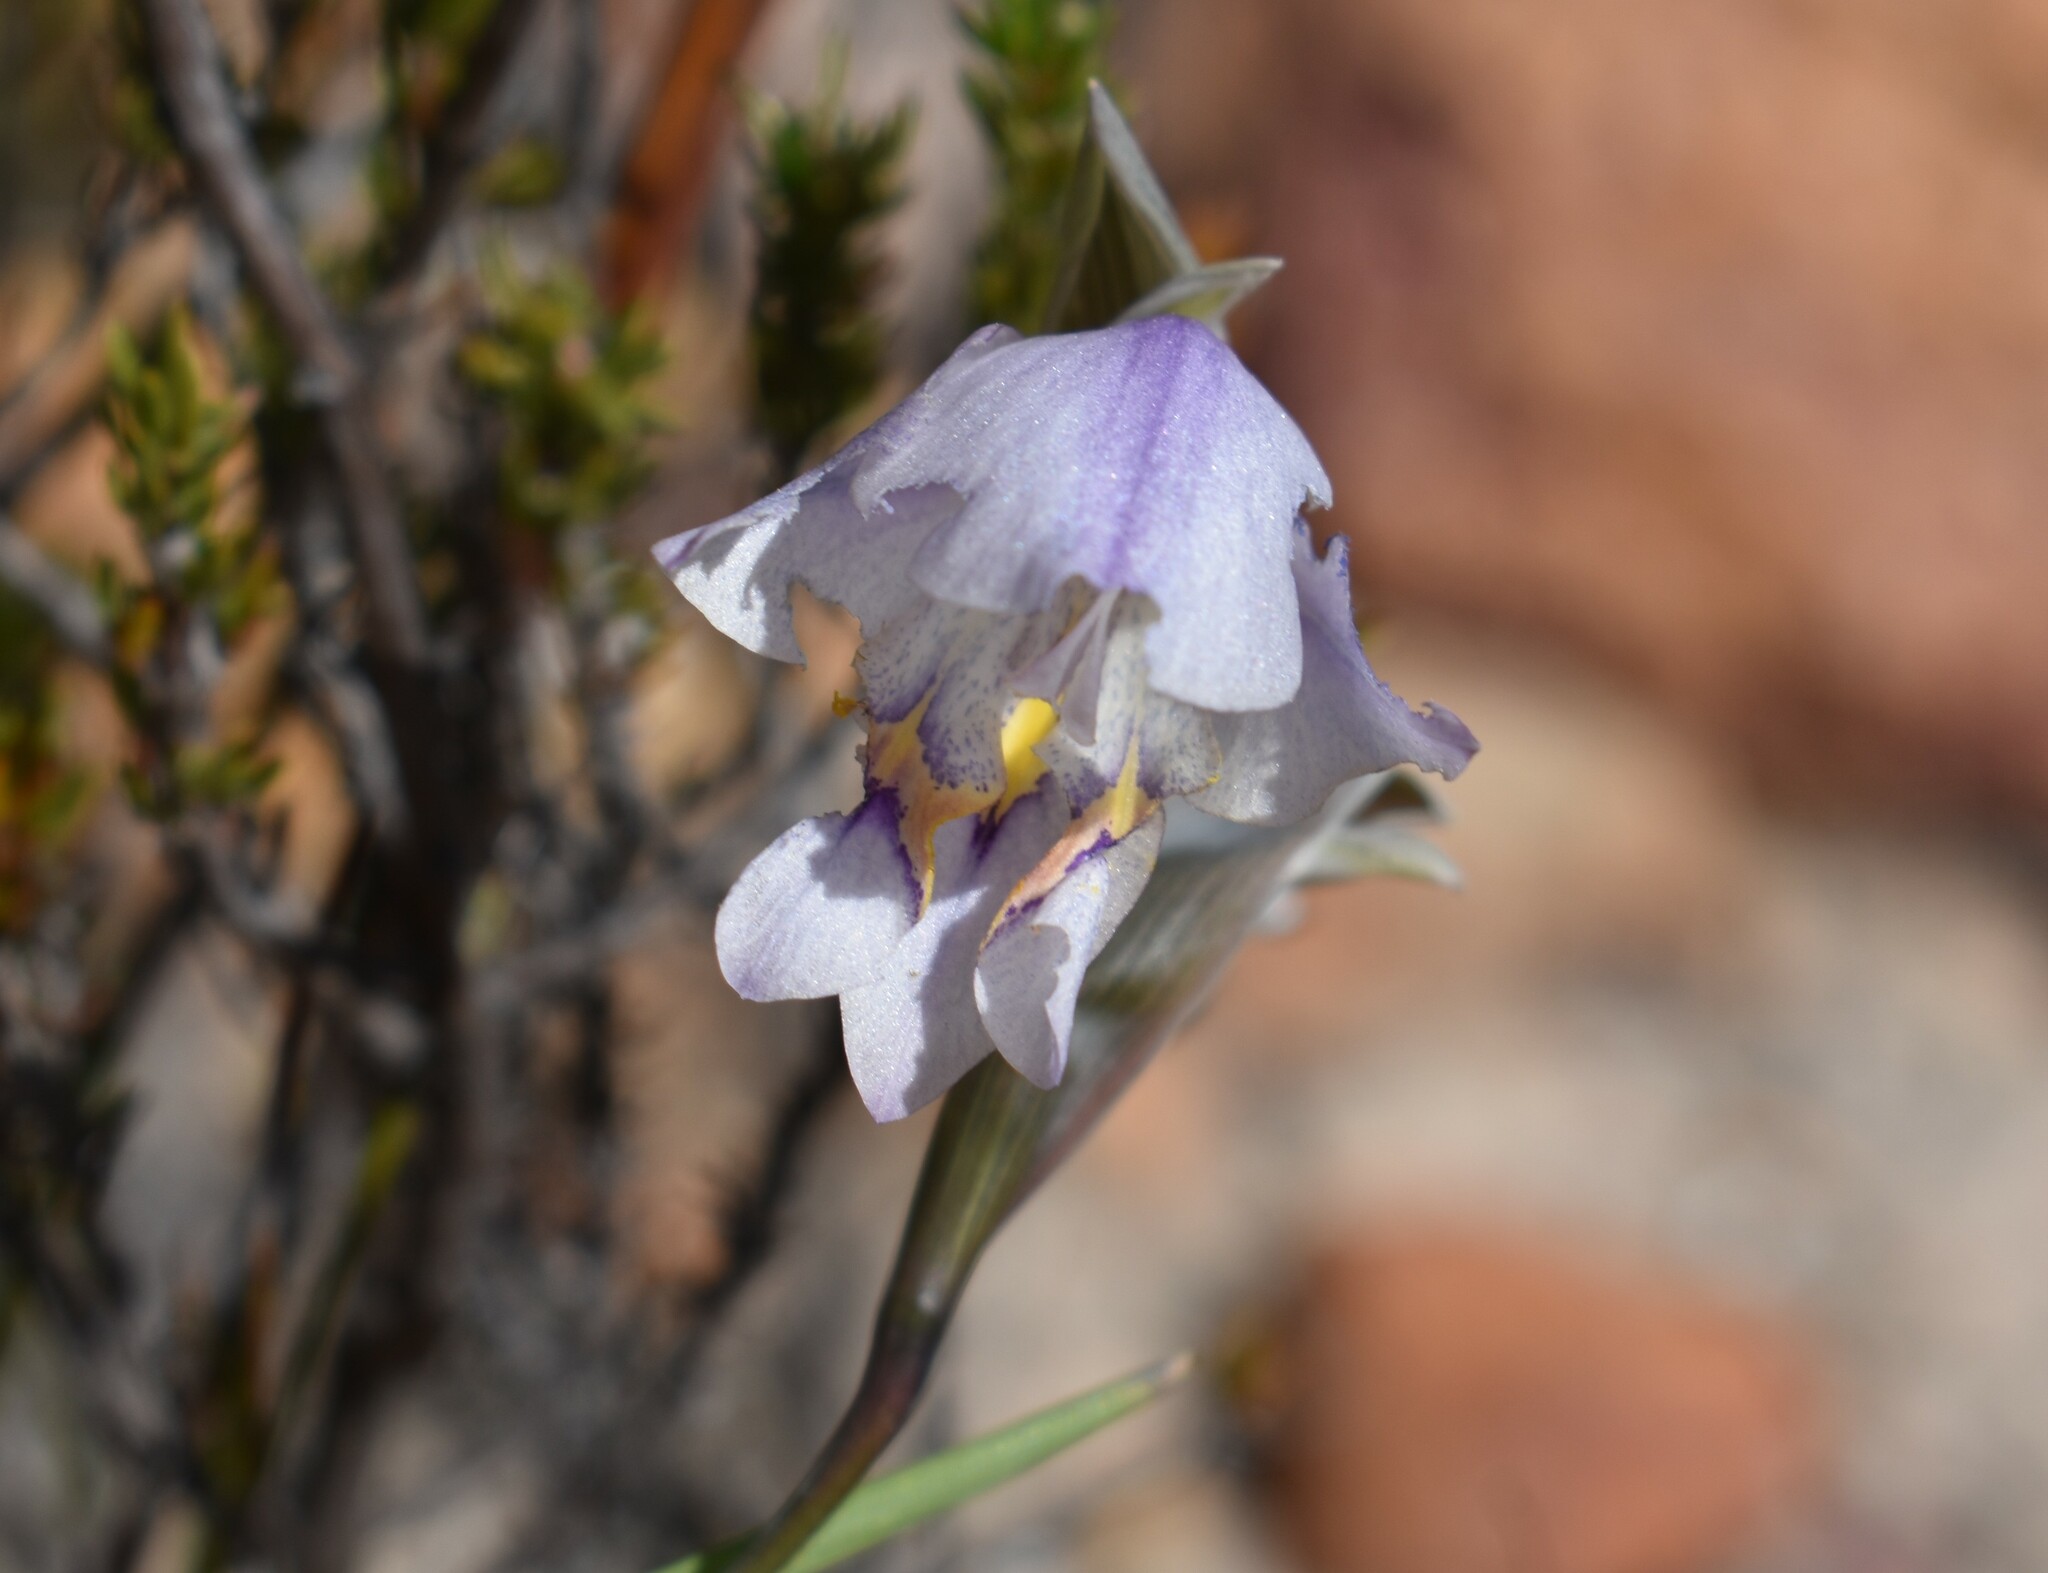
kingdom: Plantae
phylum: Tracheophyta
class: Liliopsida
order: Asparagales
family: Iridaceae
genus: Gladiolus
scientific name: Gladiolus patersoniae
